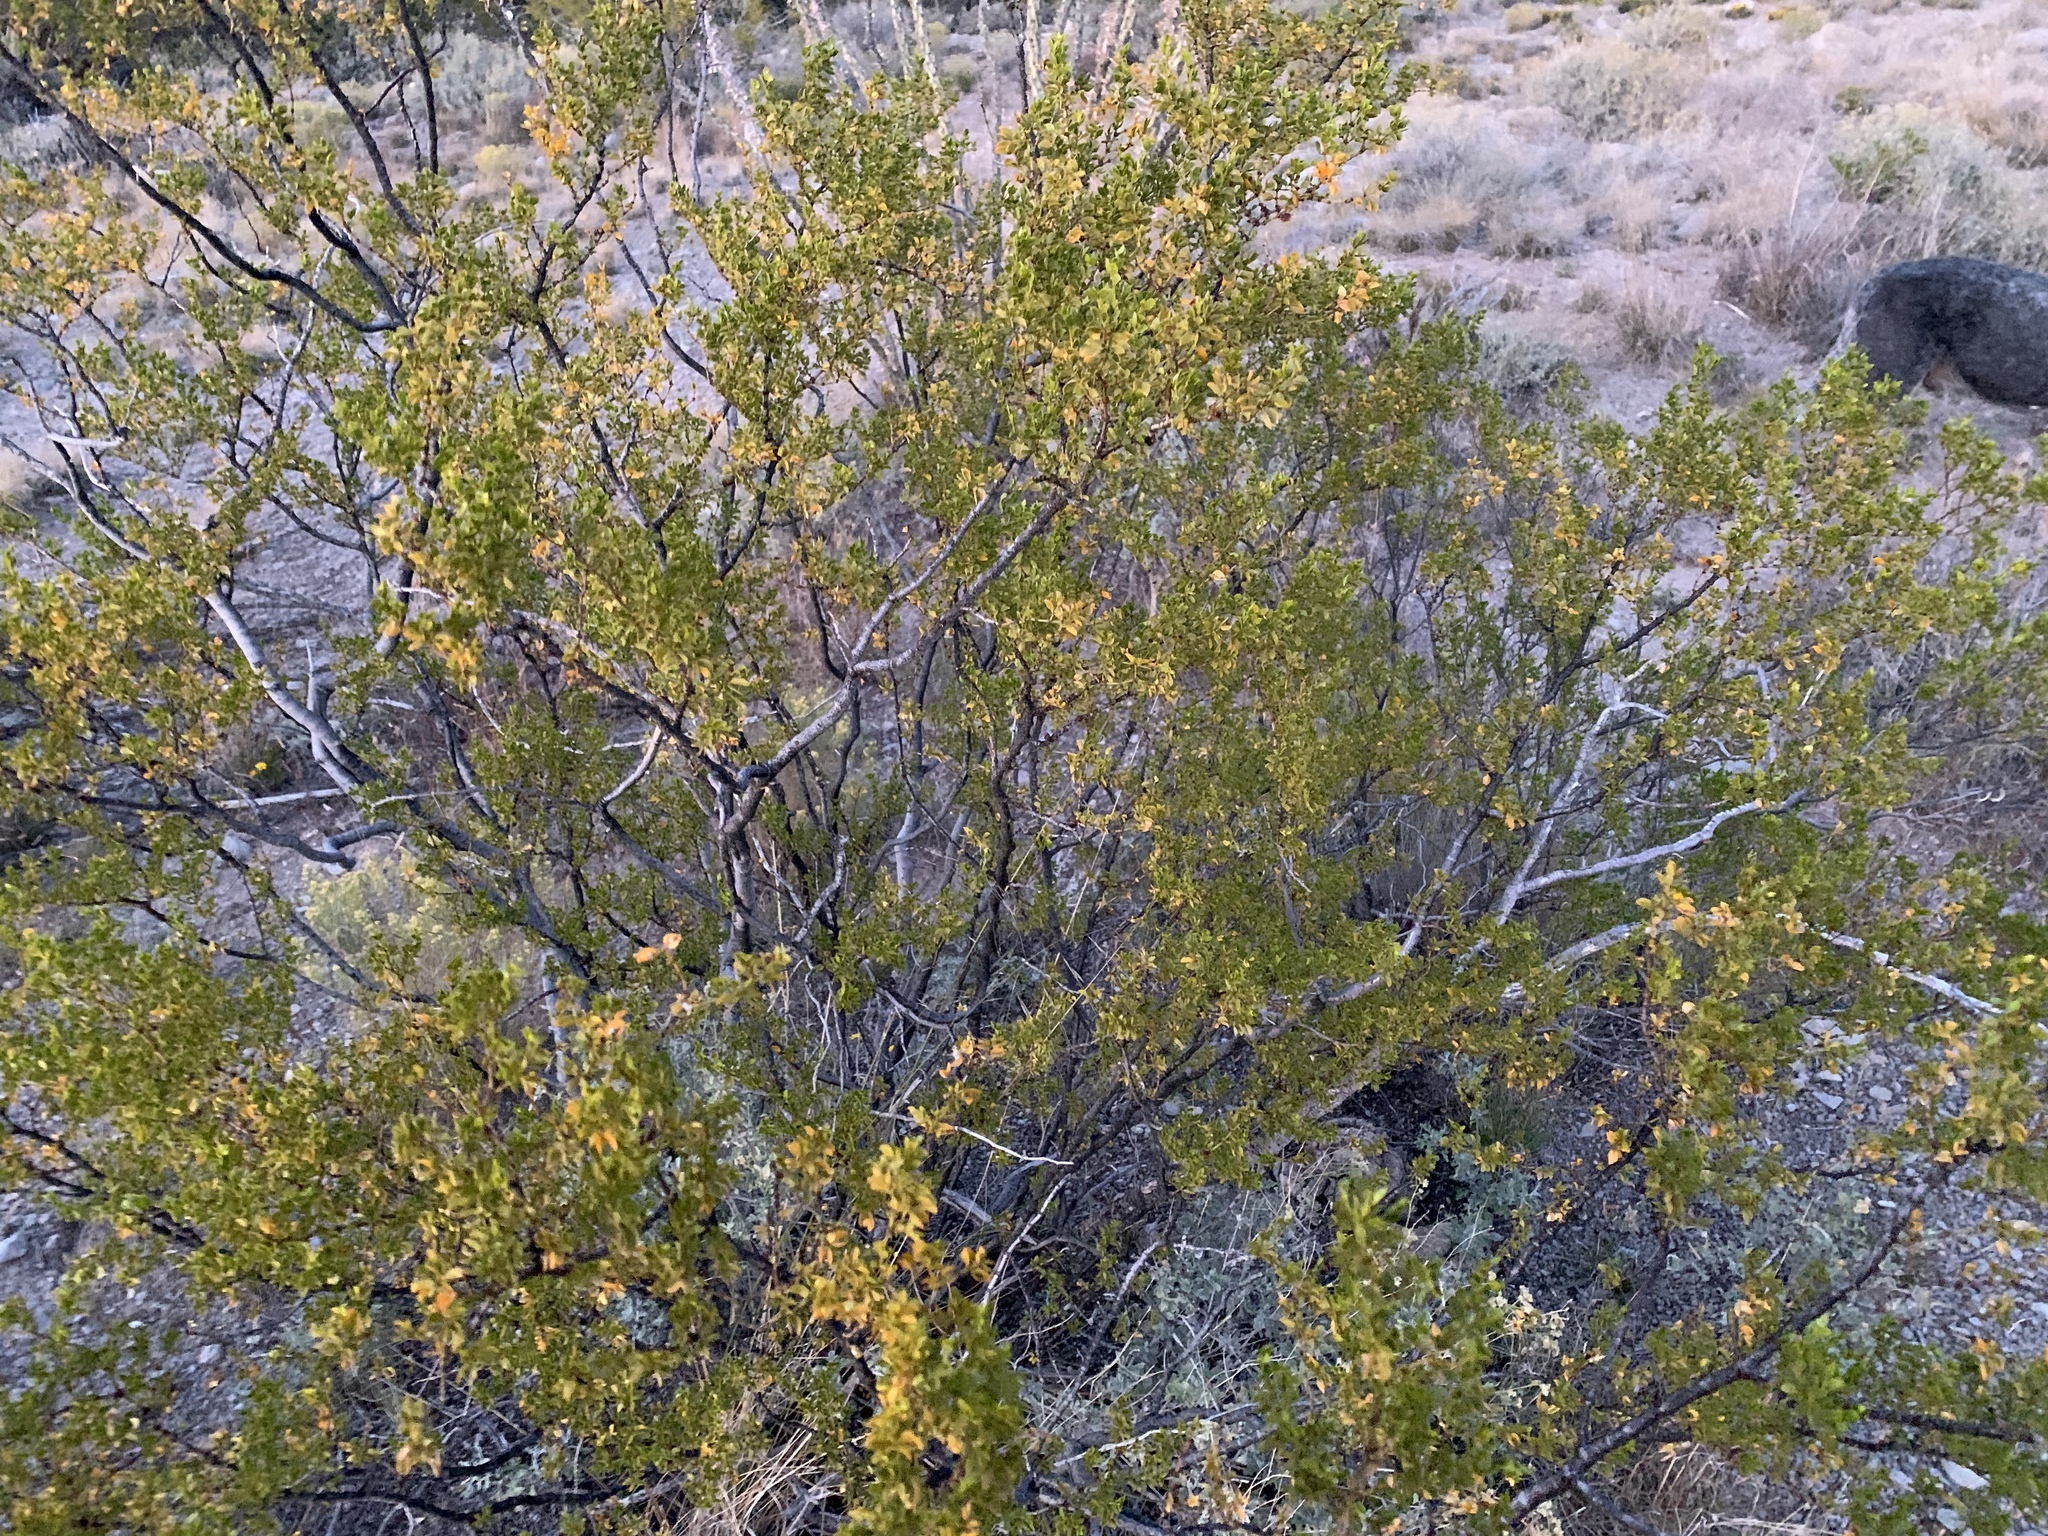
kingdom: Plantae
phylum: Tracheophyta
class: Magnoliopsida
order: Zygophyllales
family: Zygophyllaceae
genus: Larrea
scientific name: Larrea tridentata
